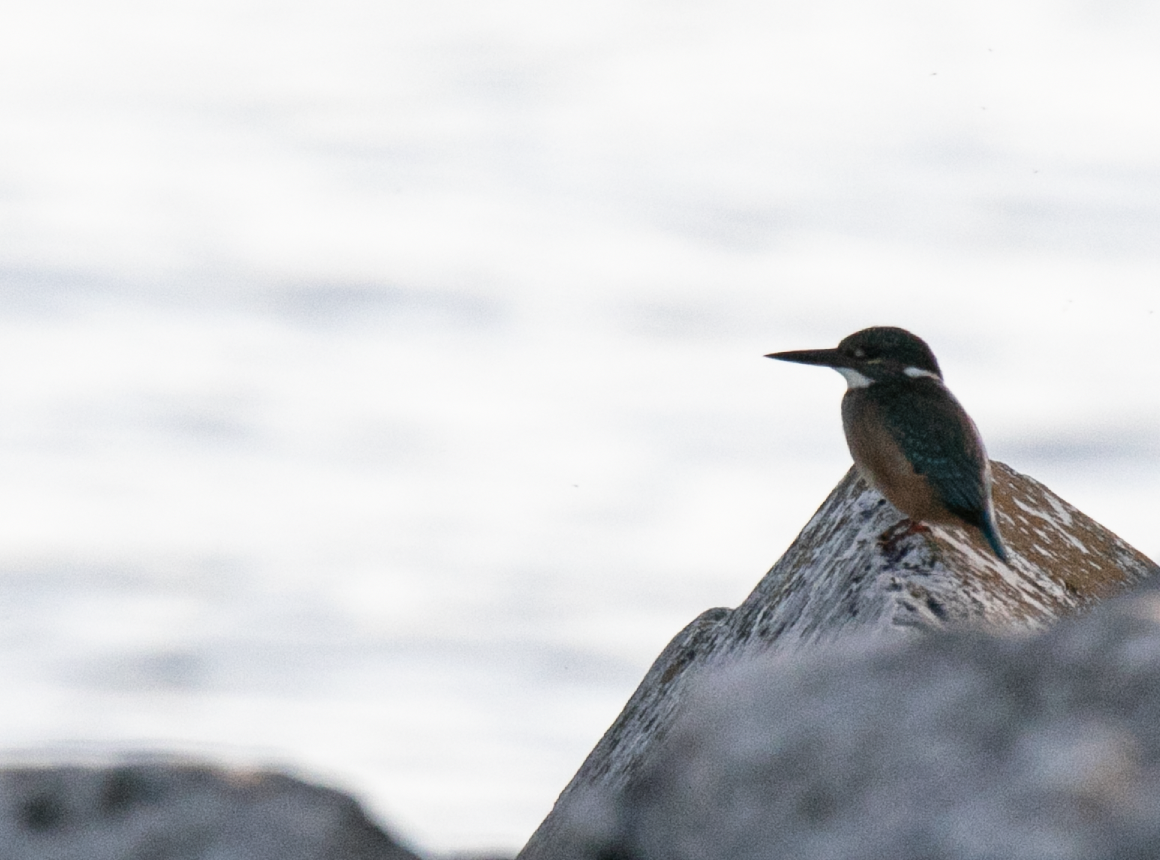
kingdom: Animalia
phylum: Chordata
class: Aves
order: Coraciiformes
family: Alcedinidae
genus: Alcedo
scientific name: Alcedo atthis
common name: Common kingfisher
